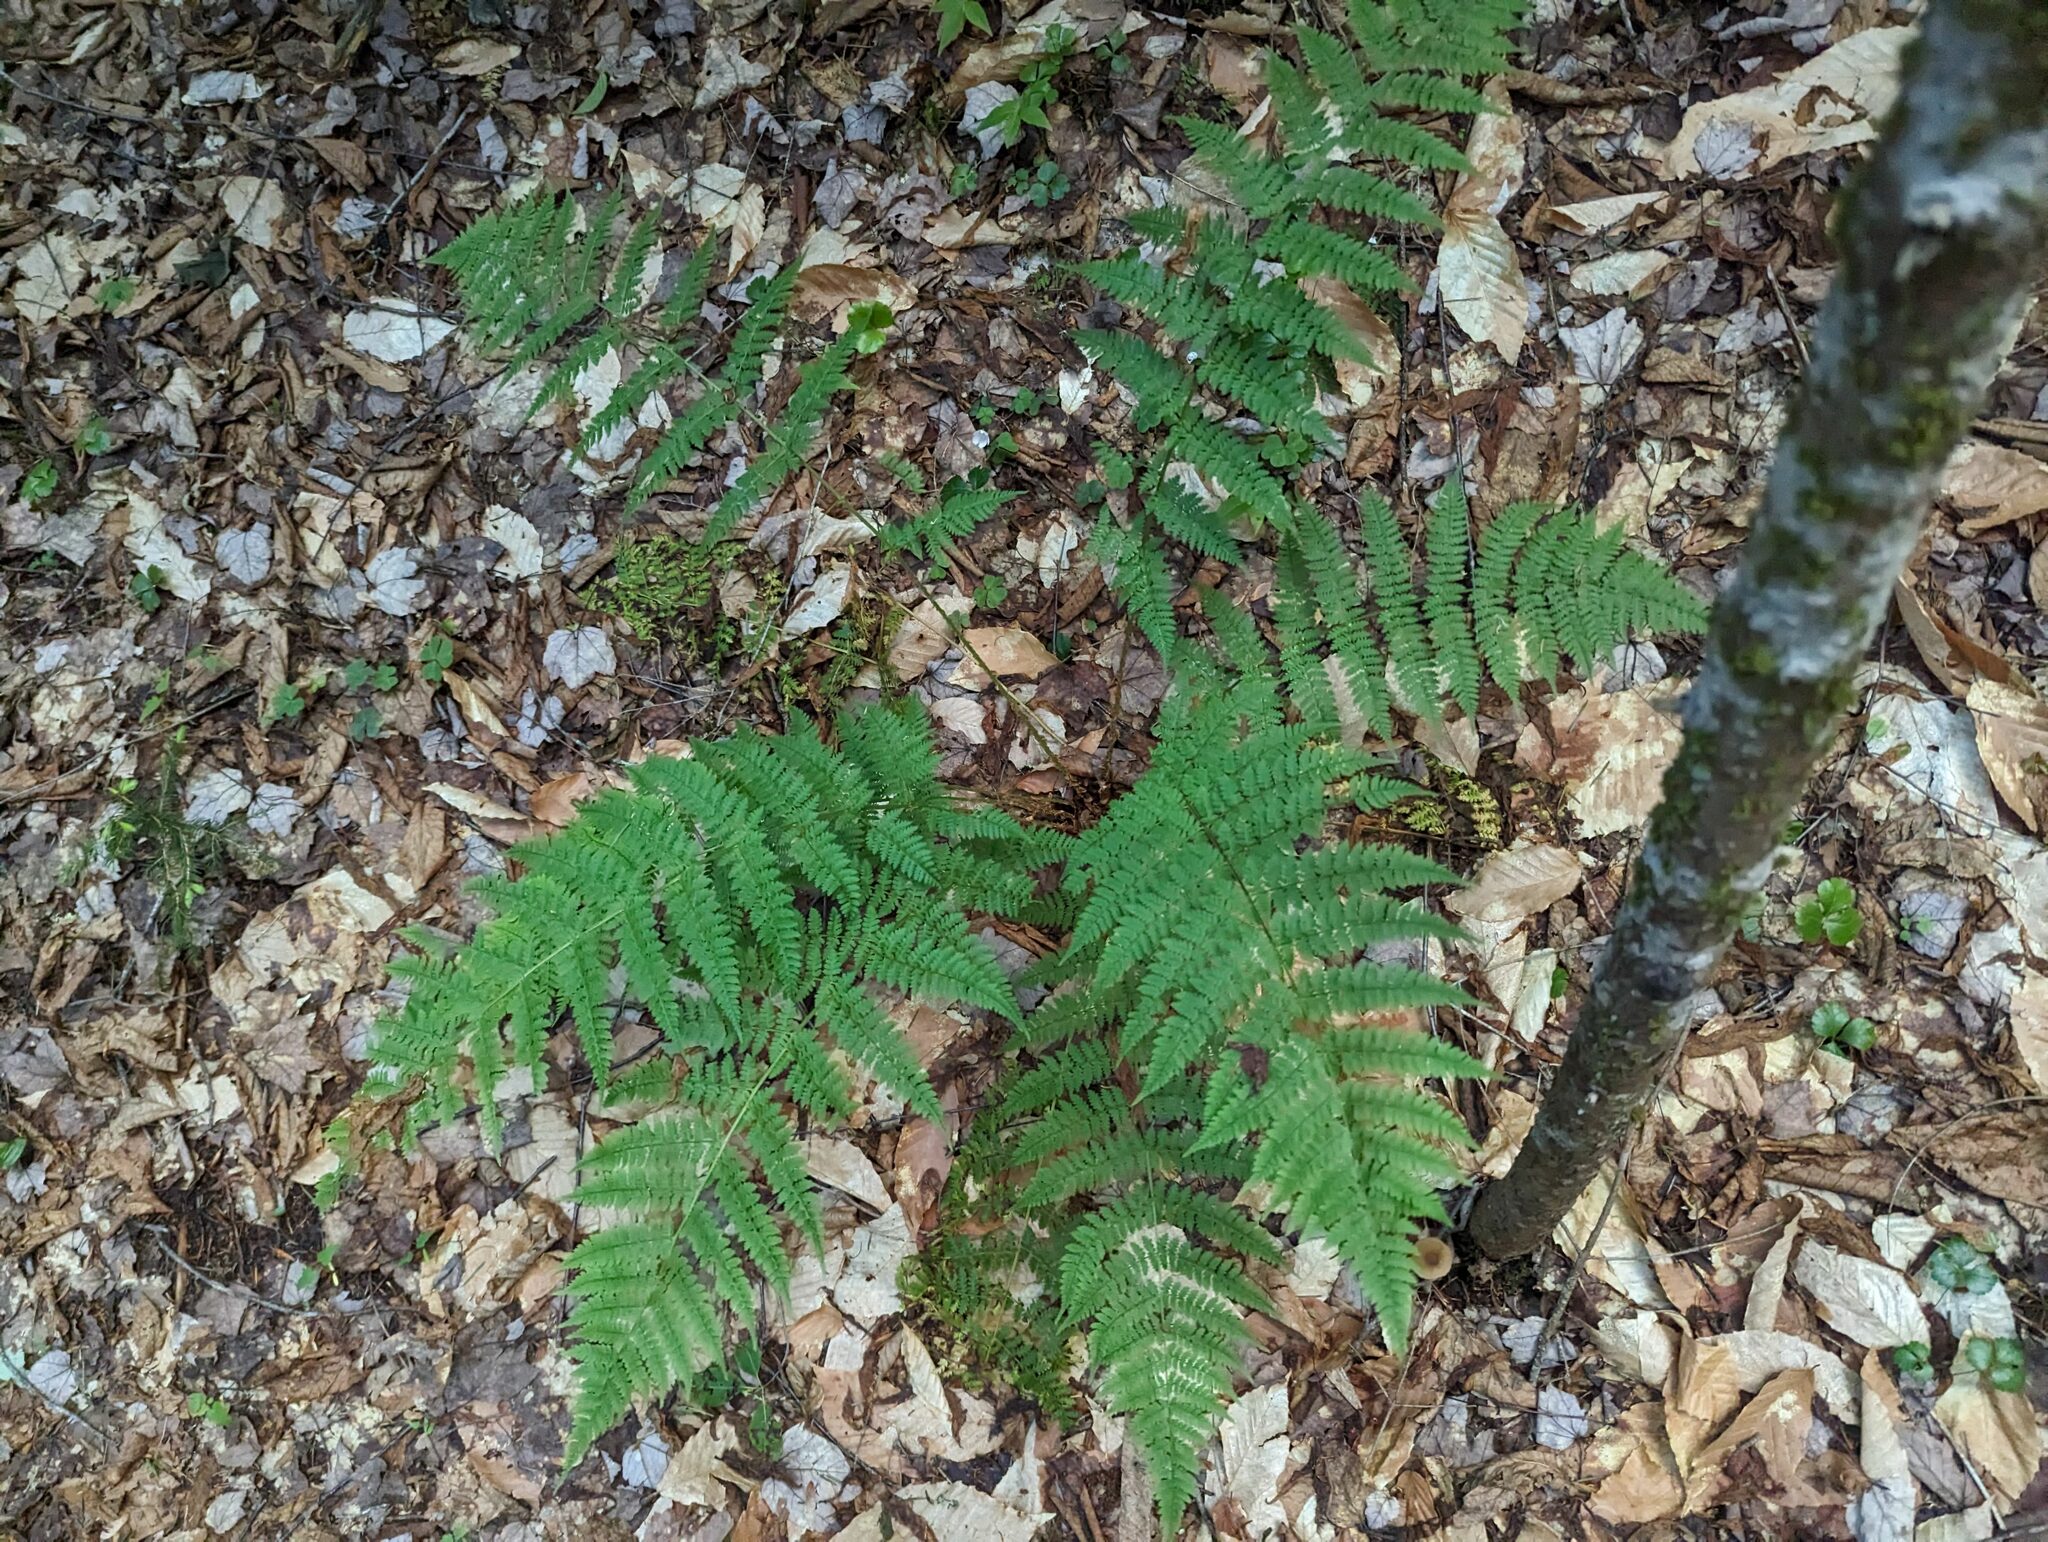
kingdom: Plantae
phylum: Tracheophyta
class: Polypodiopsida
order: Polypodiales
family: Dryopteridaceae
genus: Dryopteris
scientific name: Dryopteris intermedia
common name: Evergreen wood fern
